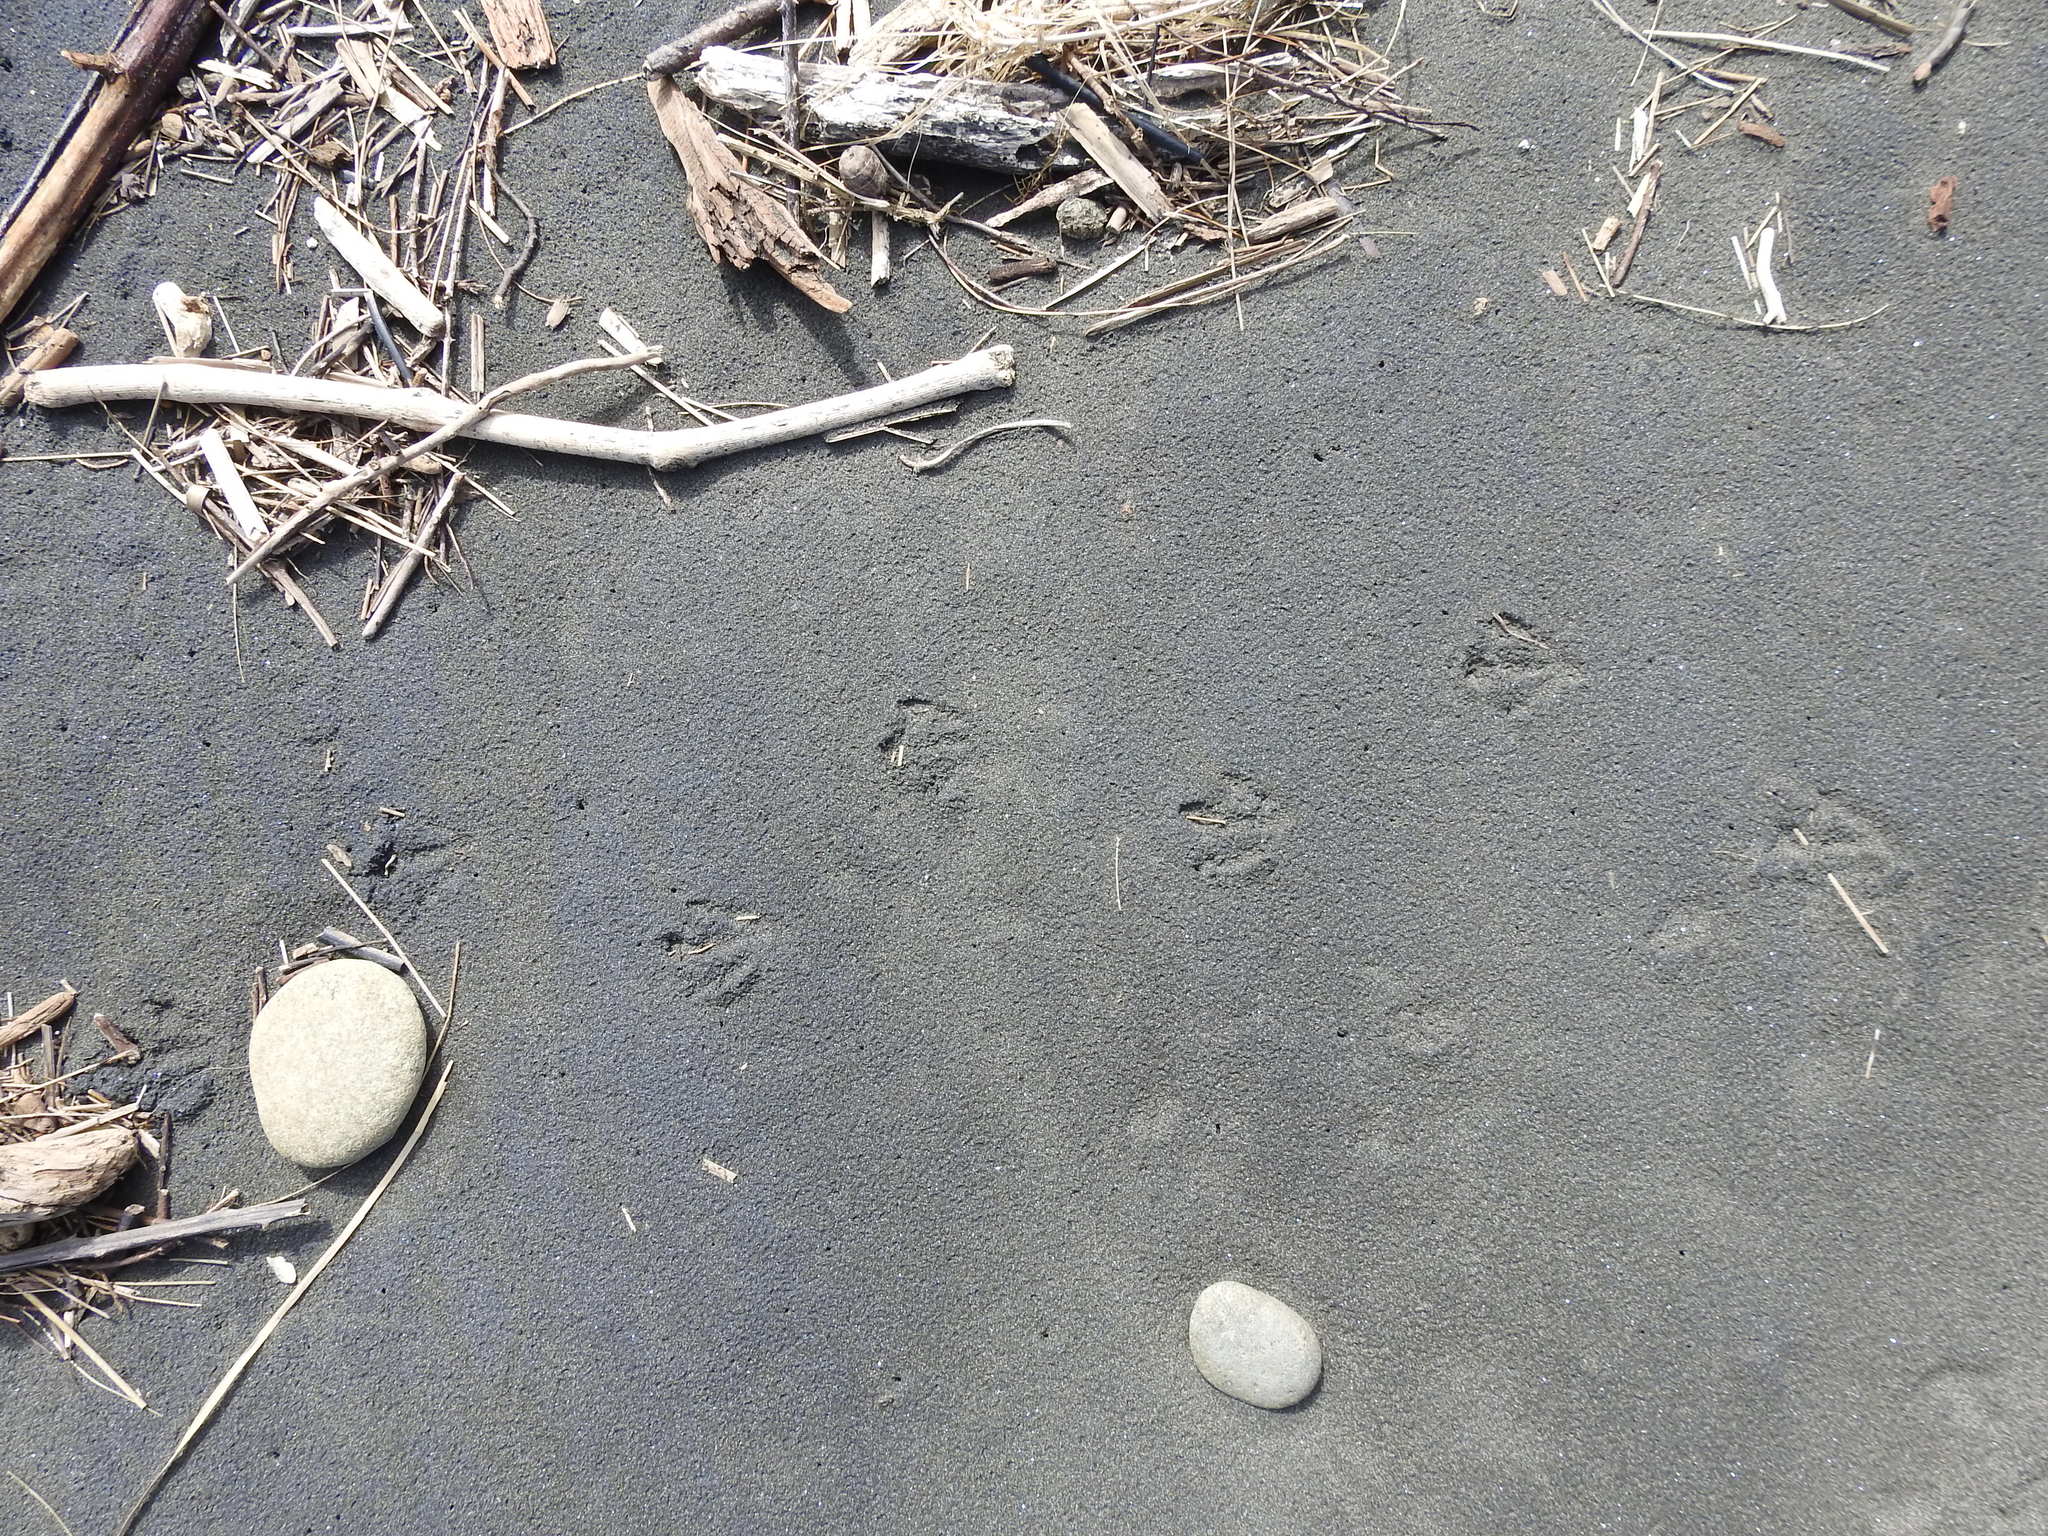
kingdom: Animalia
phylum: Chordata
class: Aves
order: Sphenisciformes
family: Spheniscidae
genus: Eudyptula
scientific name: Eudyptula minor
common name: Little penguin
